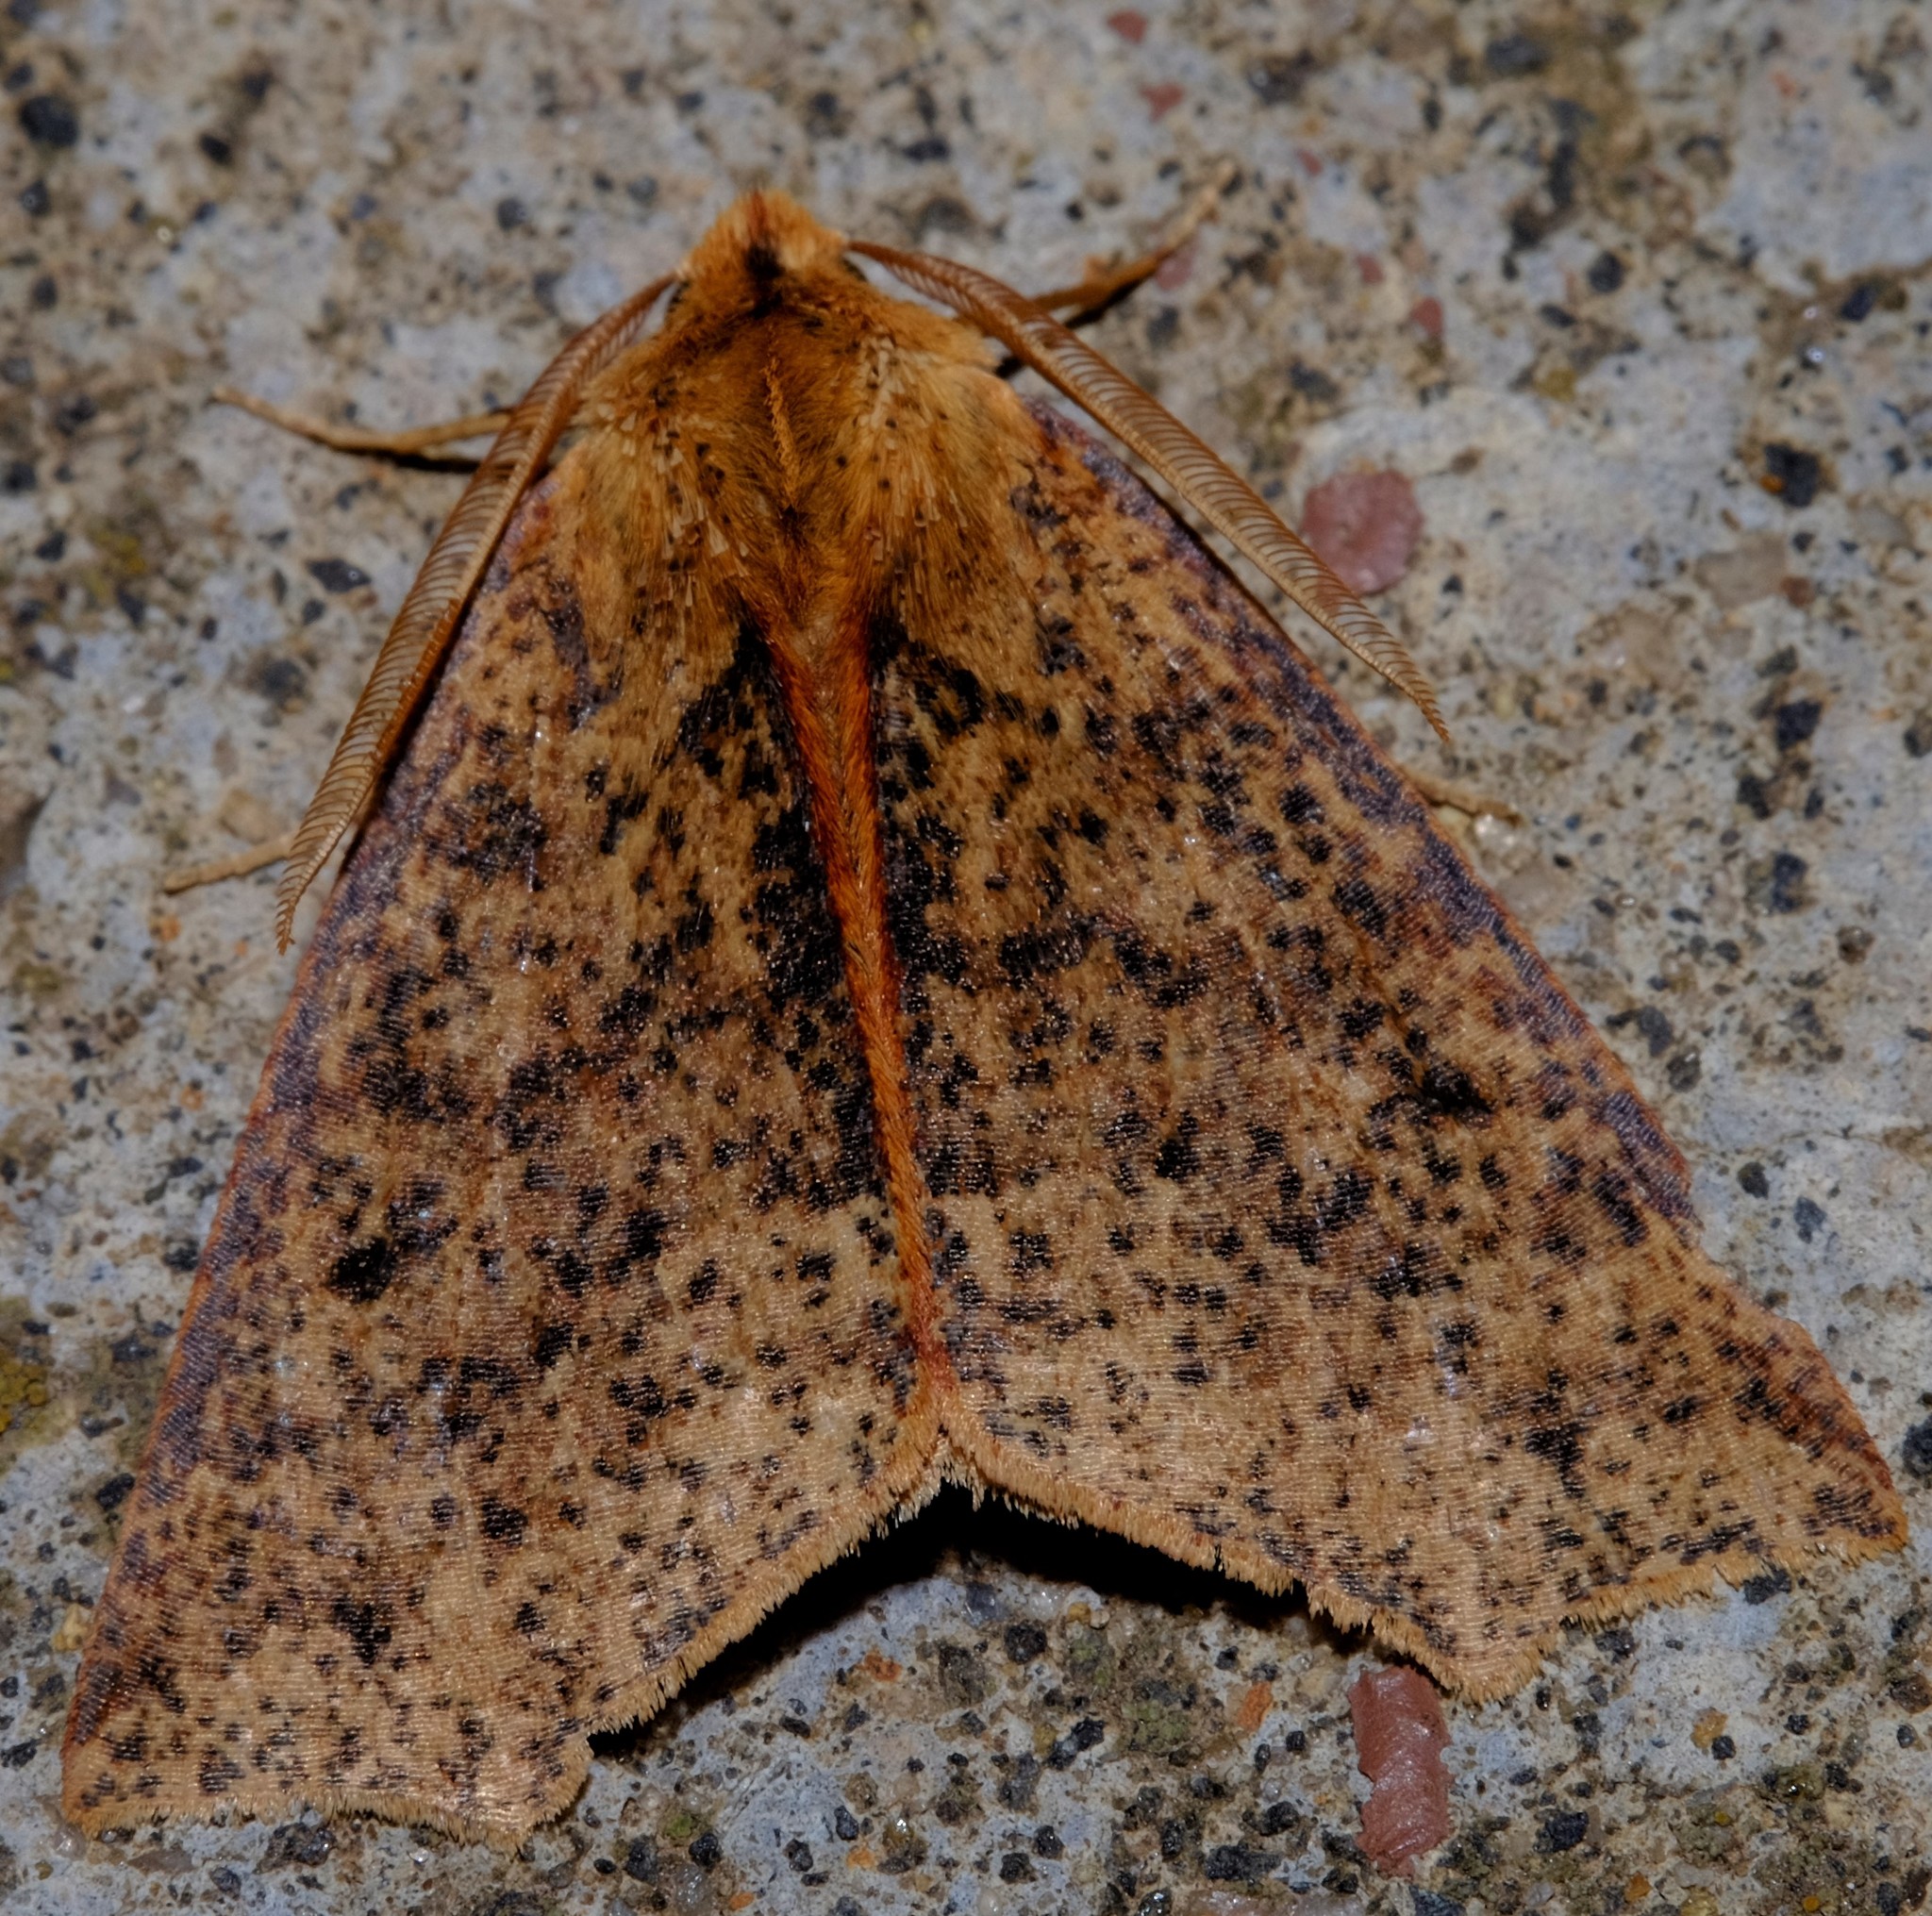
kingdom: Animalia
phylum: Arthropoda
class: Insecta
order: Lepidoptera
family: Geometridae
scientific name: Geometridae
